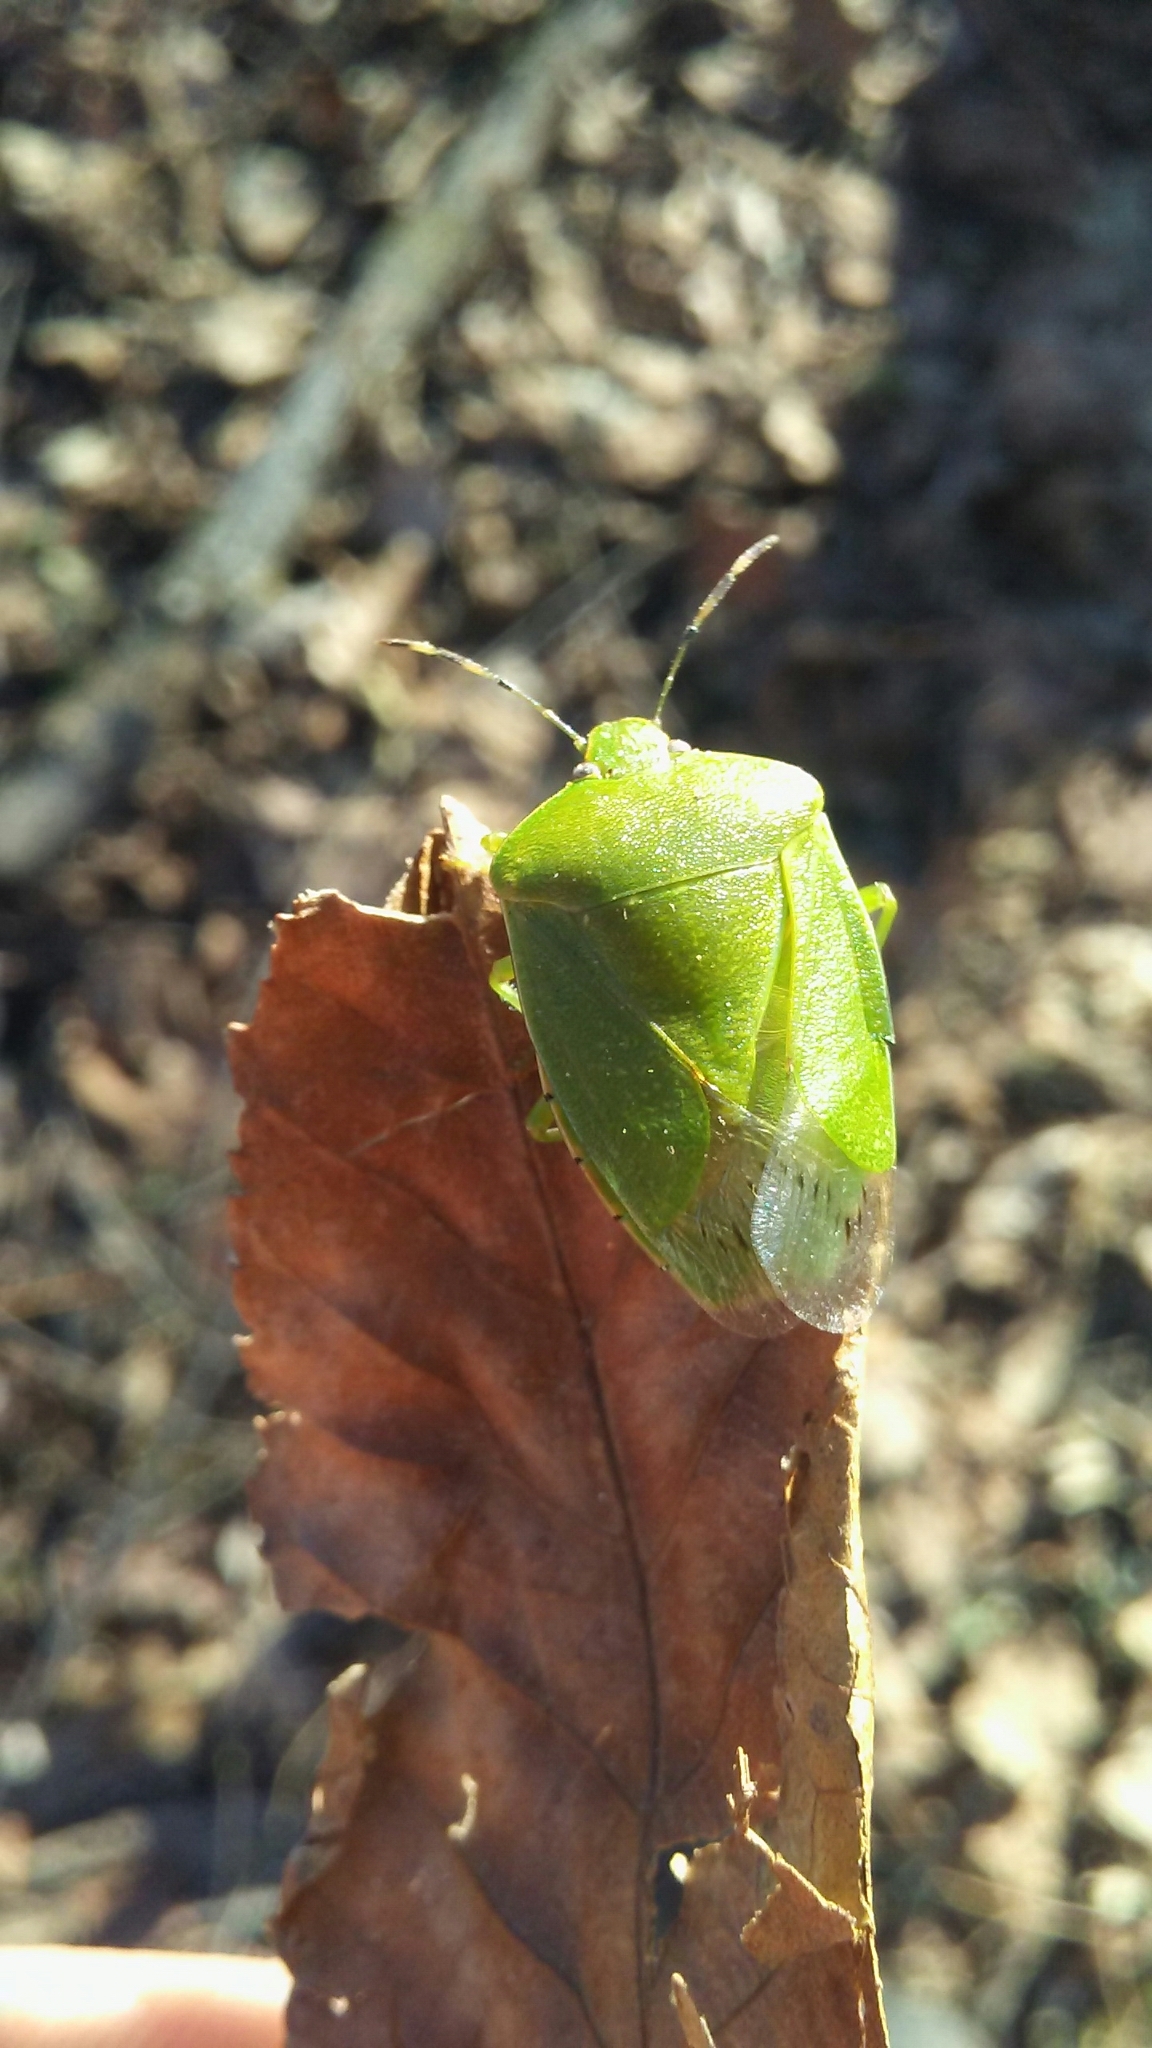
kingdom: Animalia
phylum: Arthropoda
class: Insecta
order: Hemiptera
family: Pentatomidae
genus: Chinavia
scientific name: Chinavia hilaris
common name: Green stink bug
